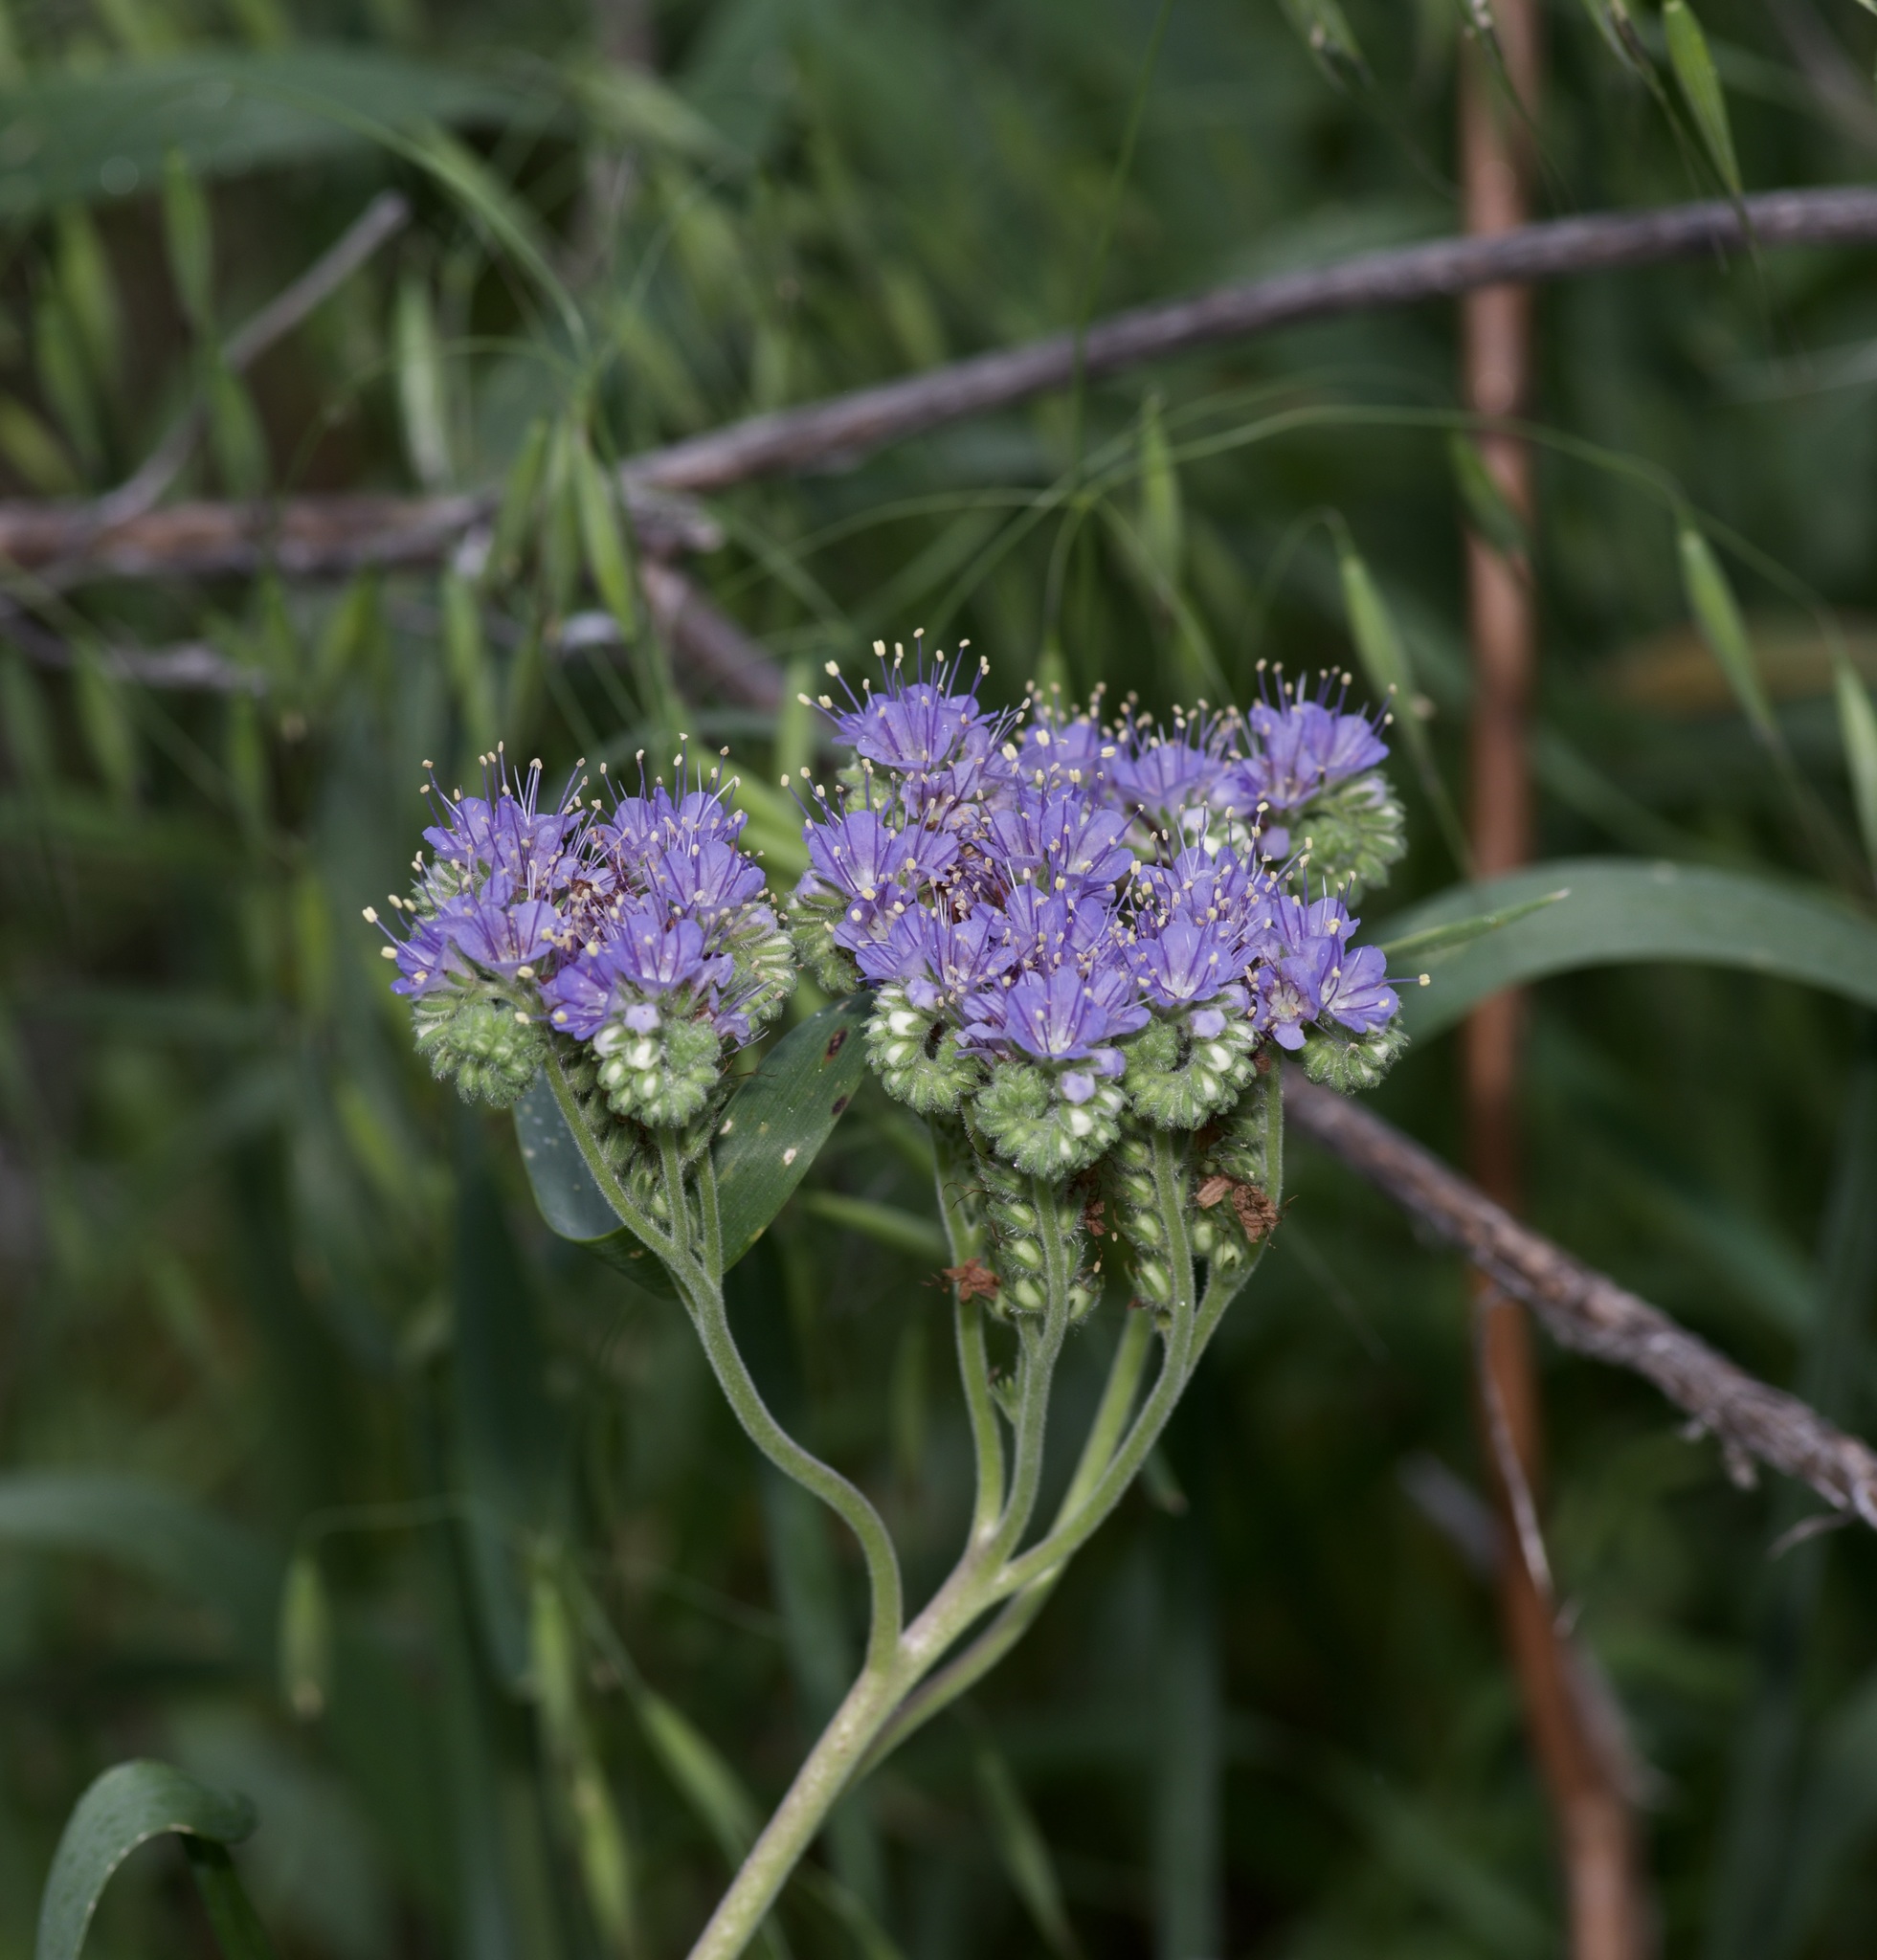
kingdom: Plantae
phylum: Tracheophyta
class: Magnoliopsida
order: Boraginales
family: Hydrophyllaceae
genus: Phacelia
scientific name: Phacelia congesta
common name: Blue curls
